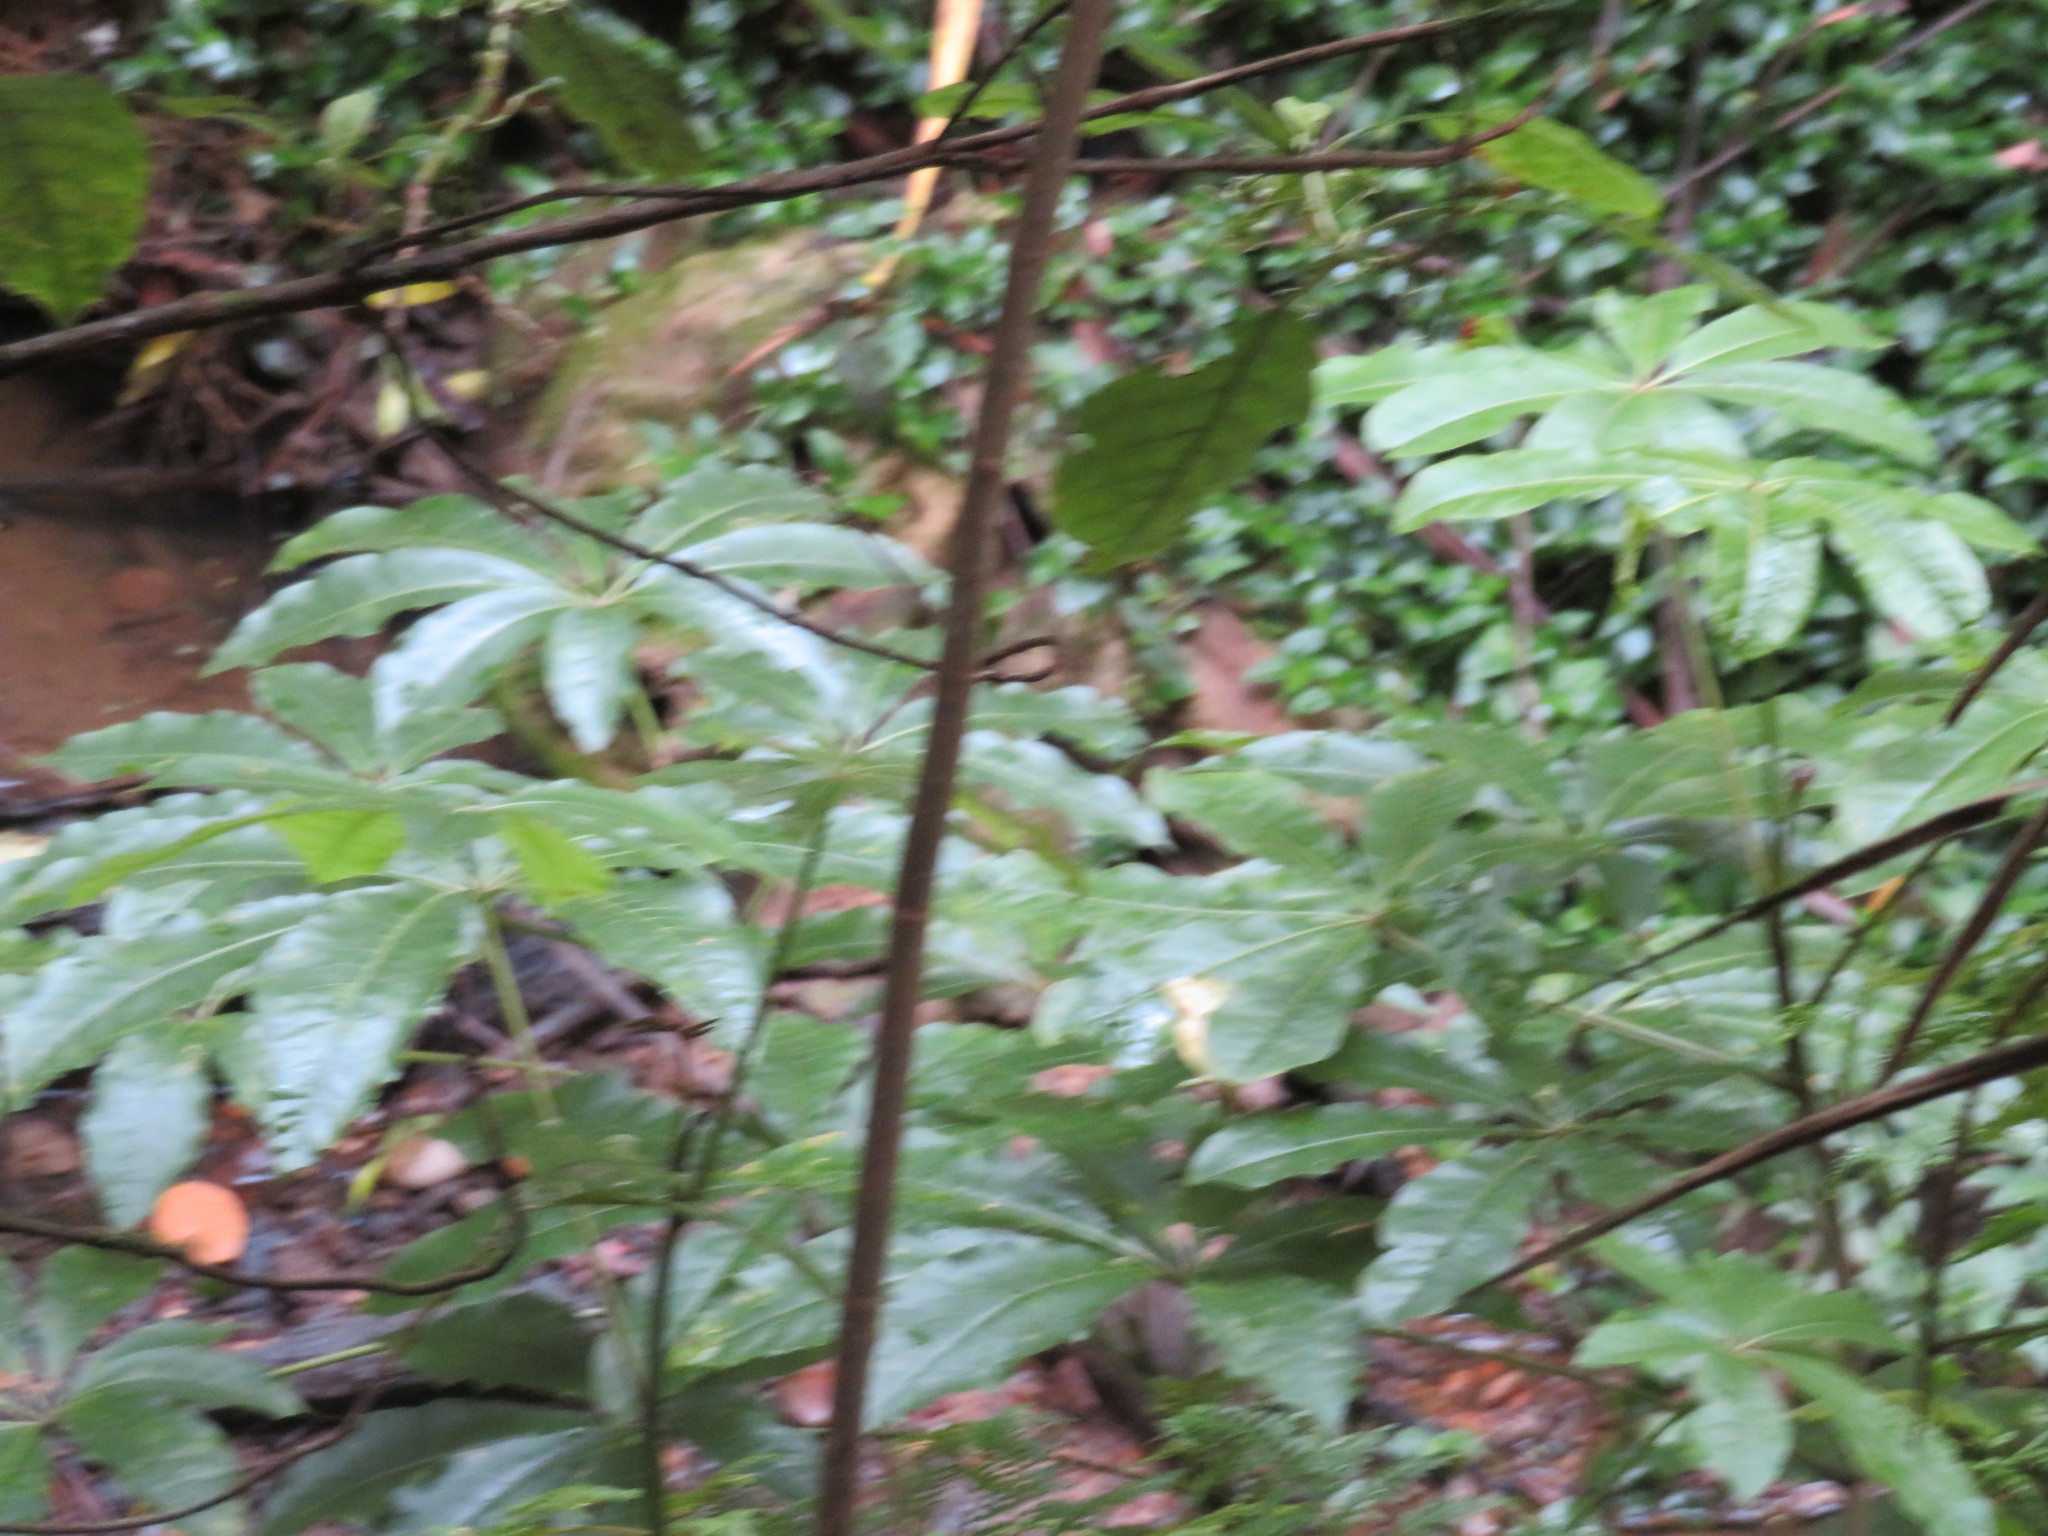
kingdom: Plantae
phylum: Tracheophyta
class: Magnoliopsida
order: Apiales
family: Araliaceae
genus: Schefflera
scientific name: Schefflera digitata
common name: Pate
